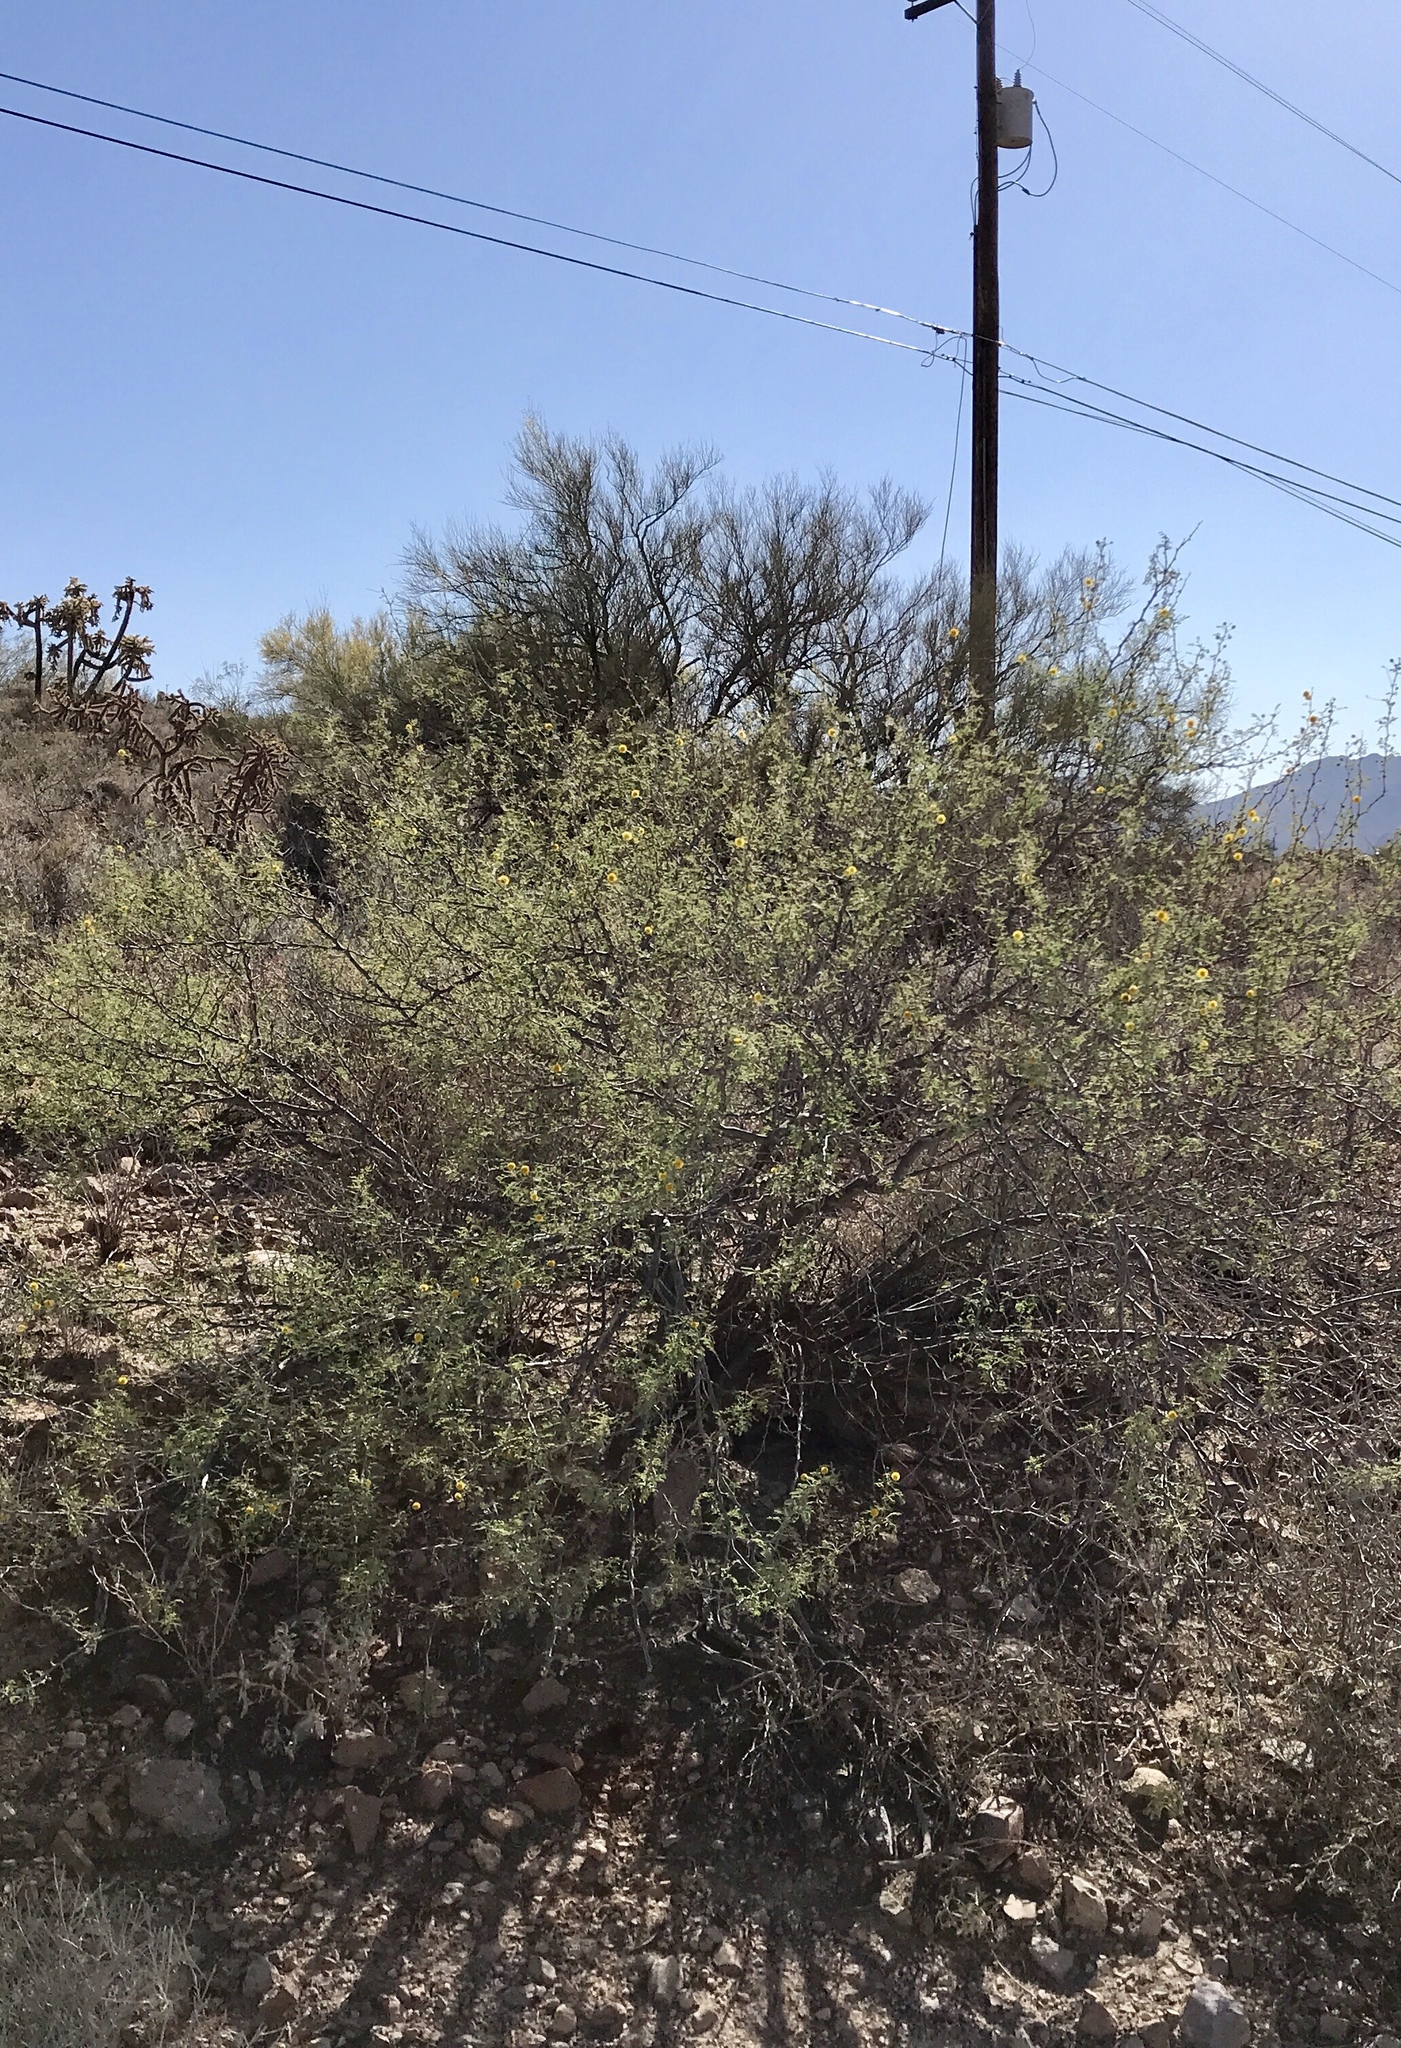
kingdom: Plantae
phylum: Tracheophyta
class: Magnoliopsida
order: Fabales
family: Fabaceae
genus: Vachellia
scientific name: Vachellia constricta
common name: Mescat acacia
